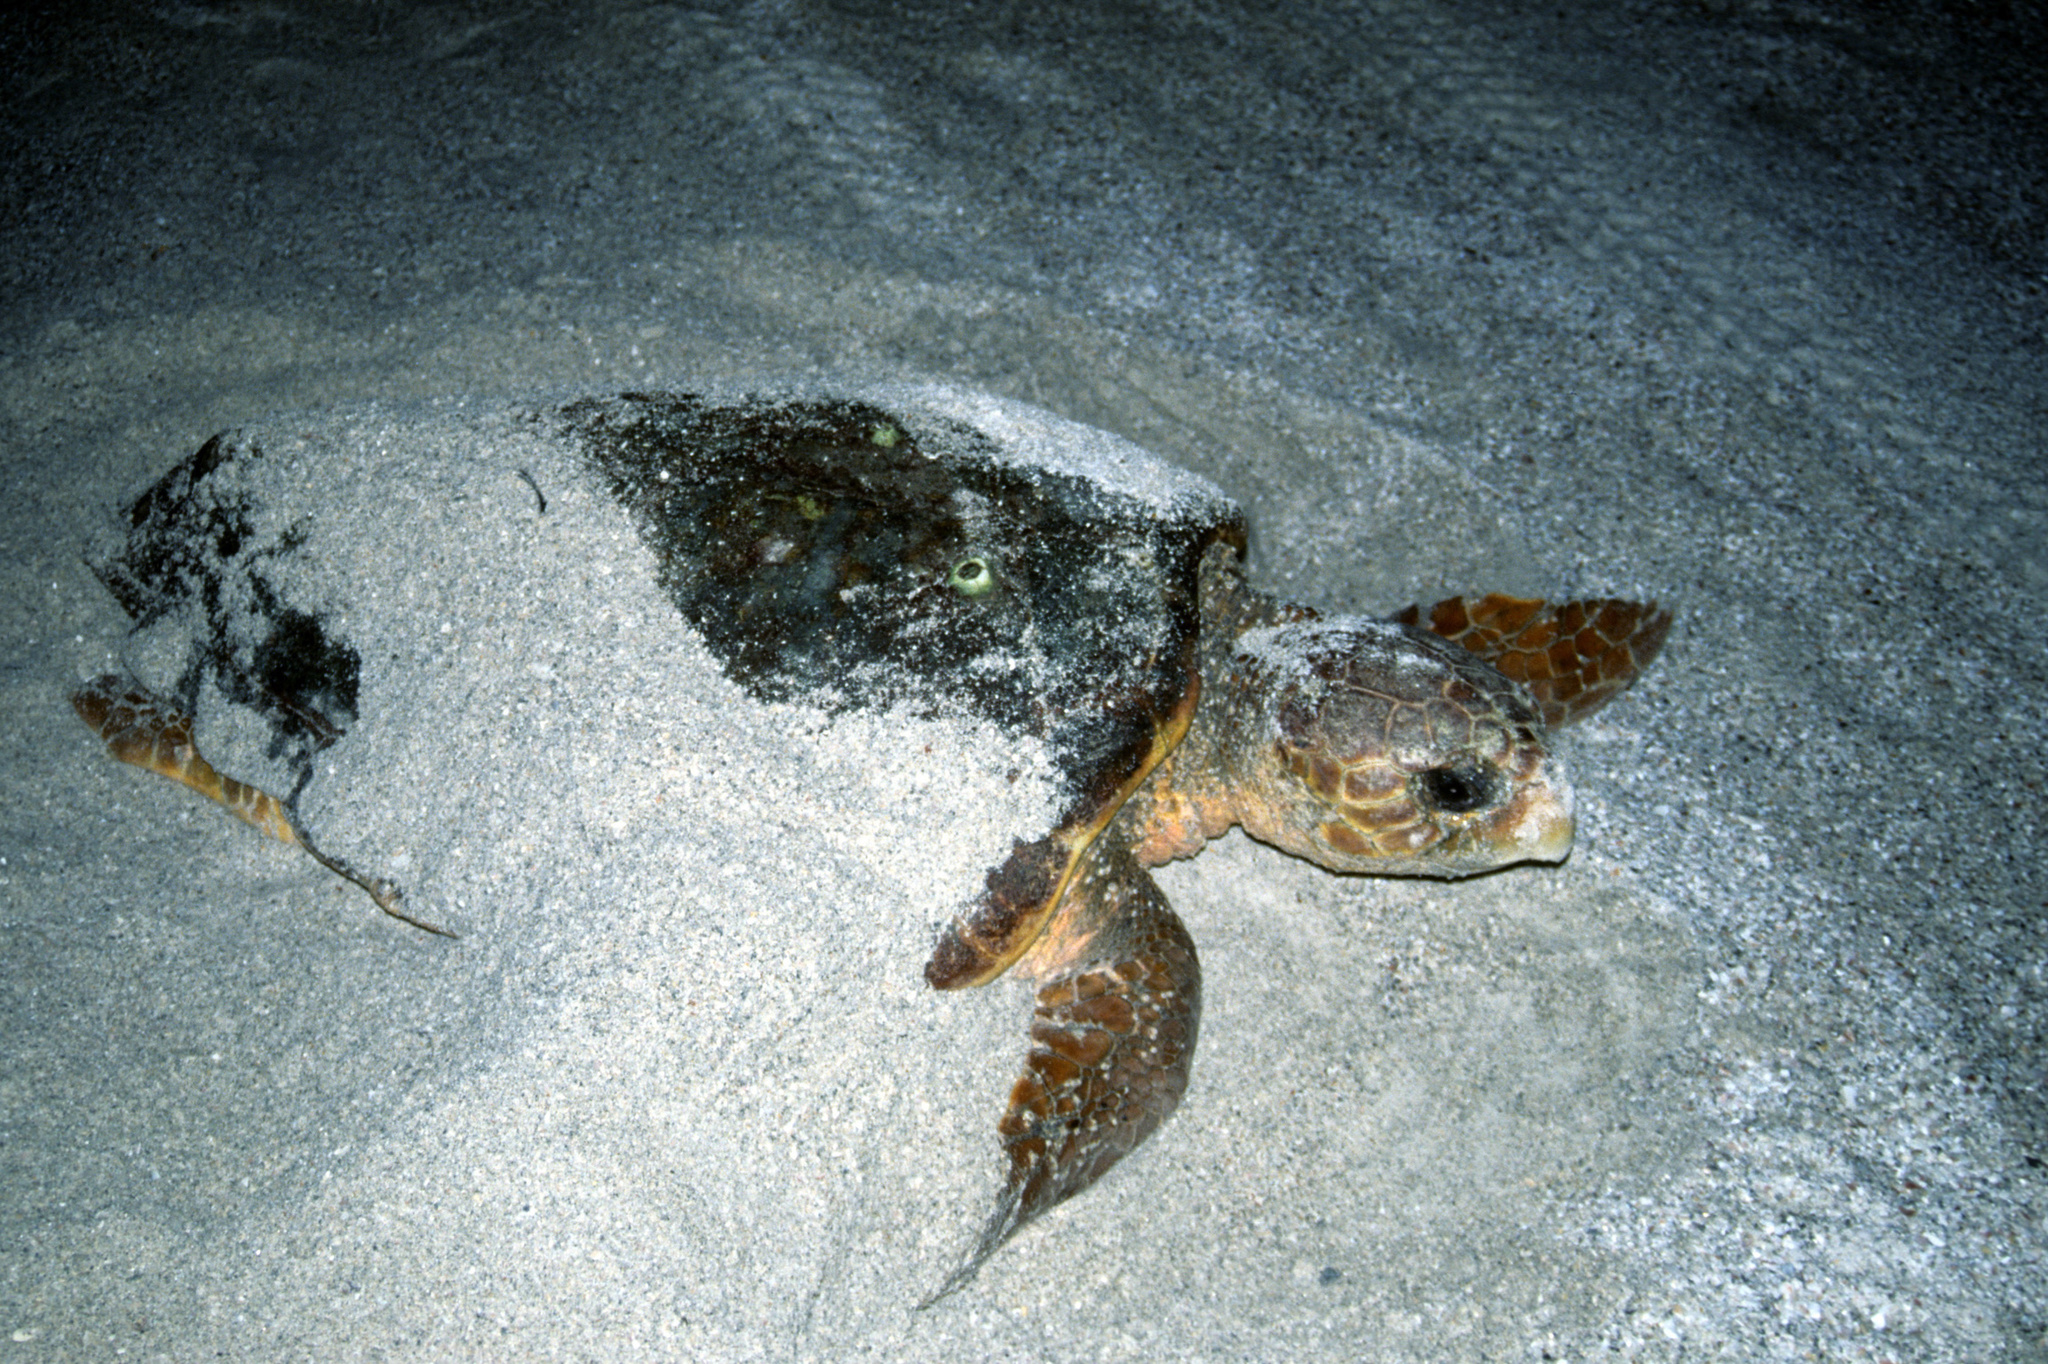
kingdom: Animalia
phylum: Chordata
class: Testudines
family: Cheloniidae
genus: Caretta
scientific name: Caretta caretta
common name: Loggerhead sea turtle
